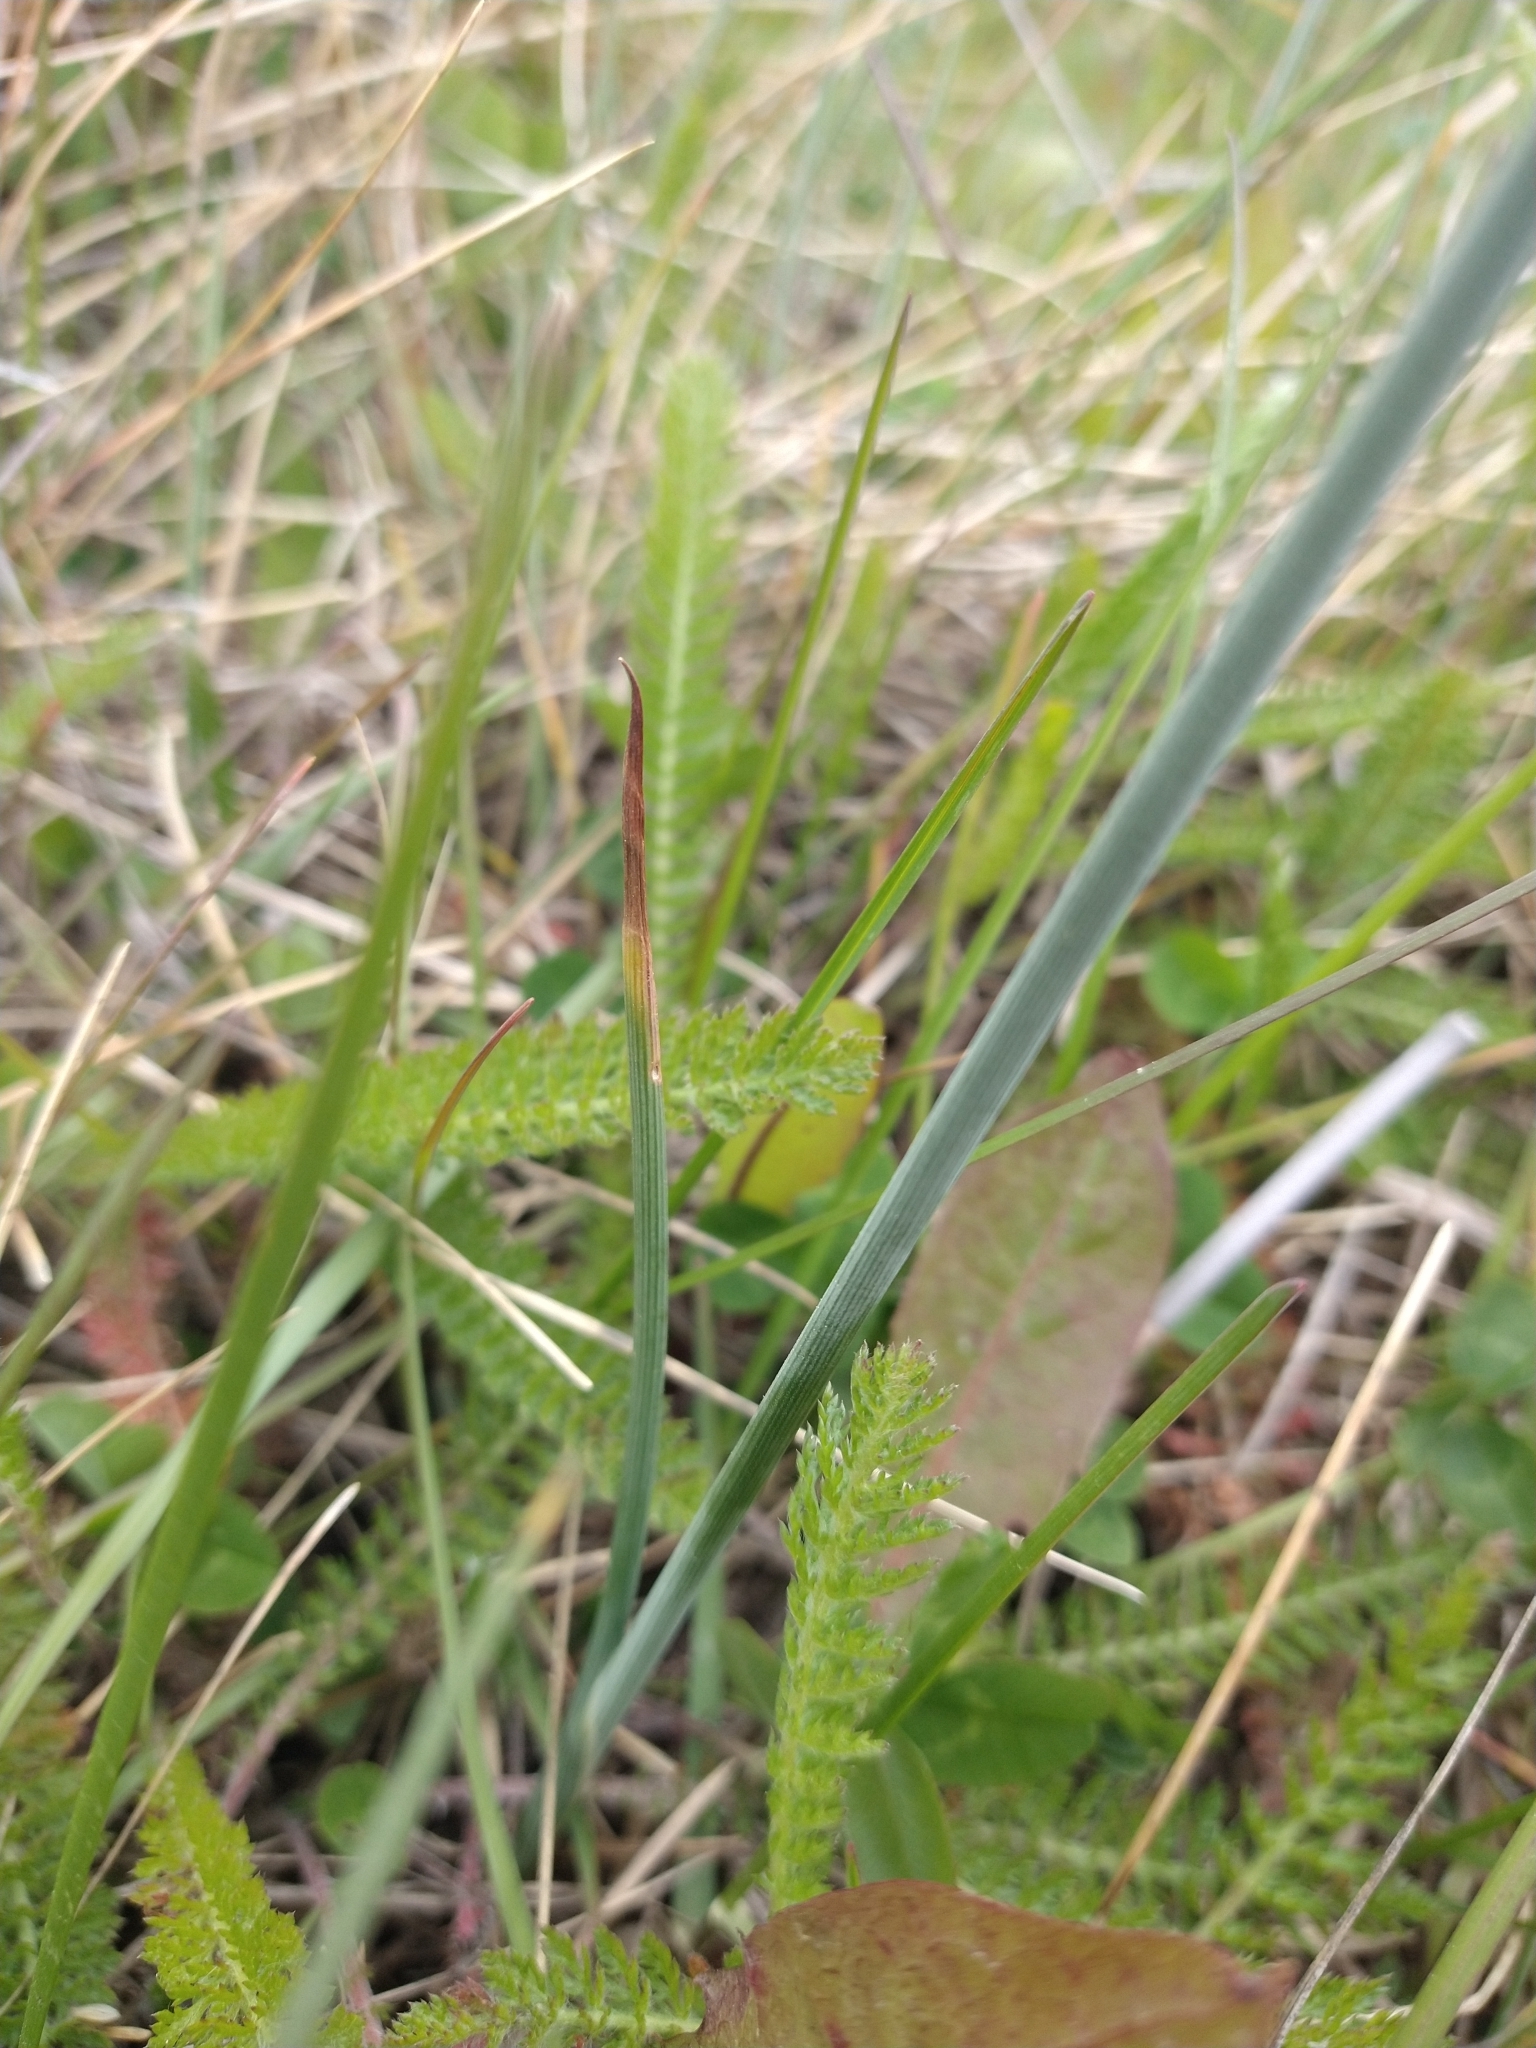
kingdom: Plantae
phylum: Tracheophyta
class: Liliopsida
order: Asparagales
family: Iridaceae
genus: Olsynium
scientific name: Olsynium biflorum
